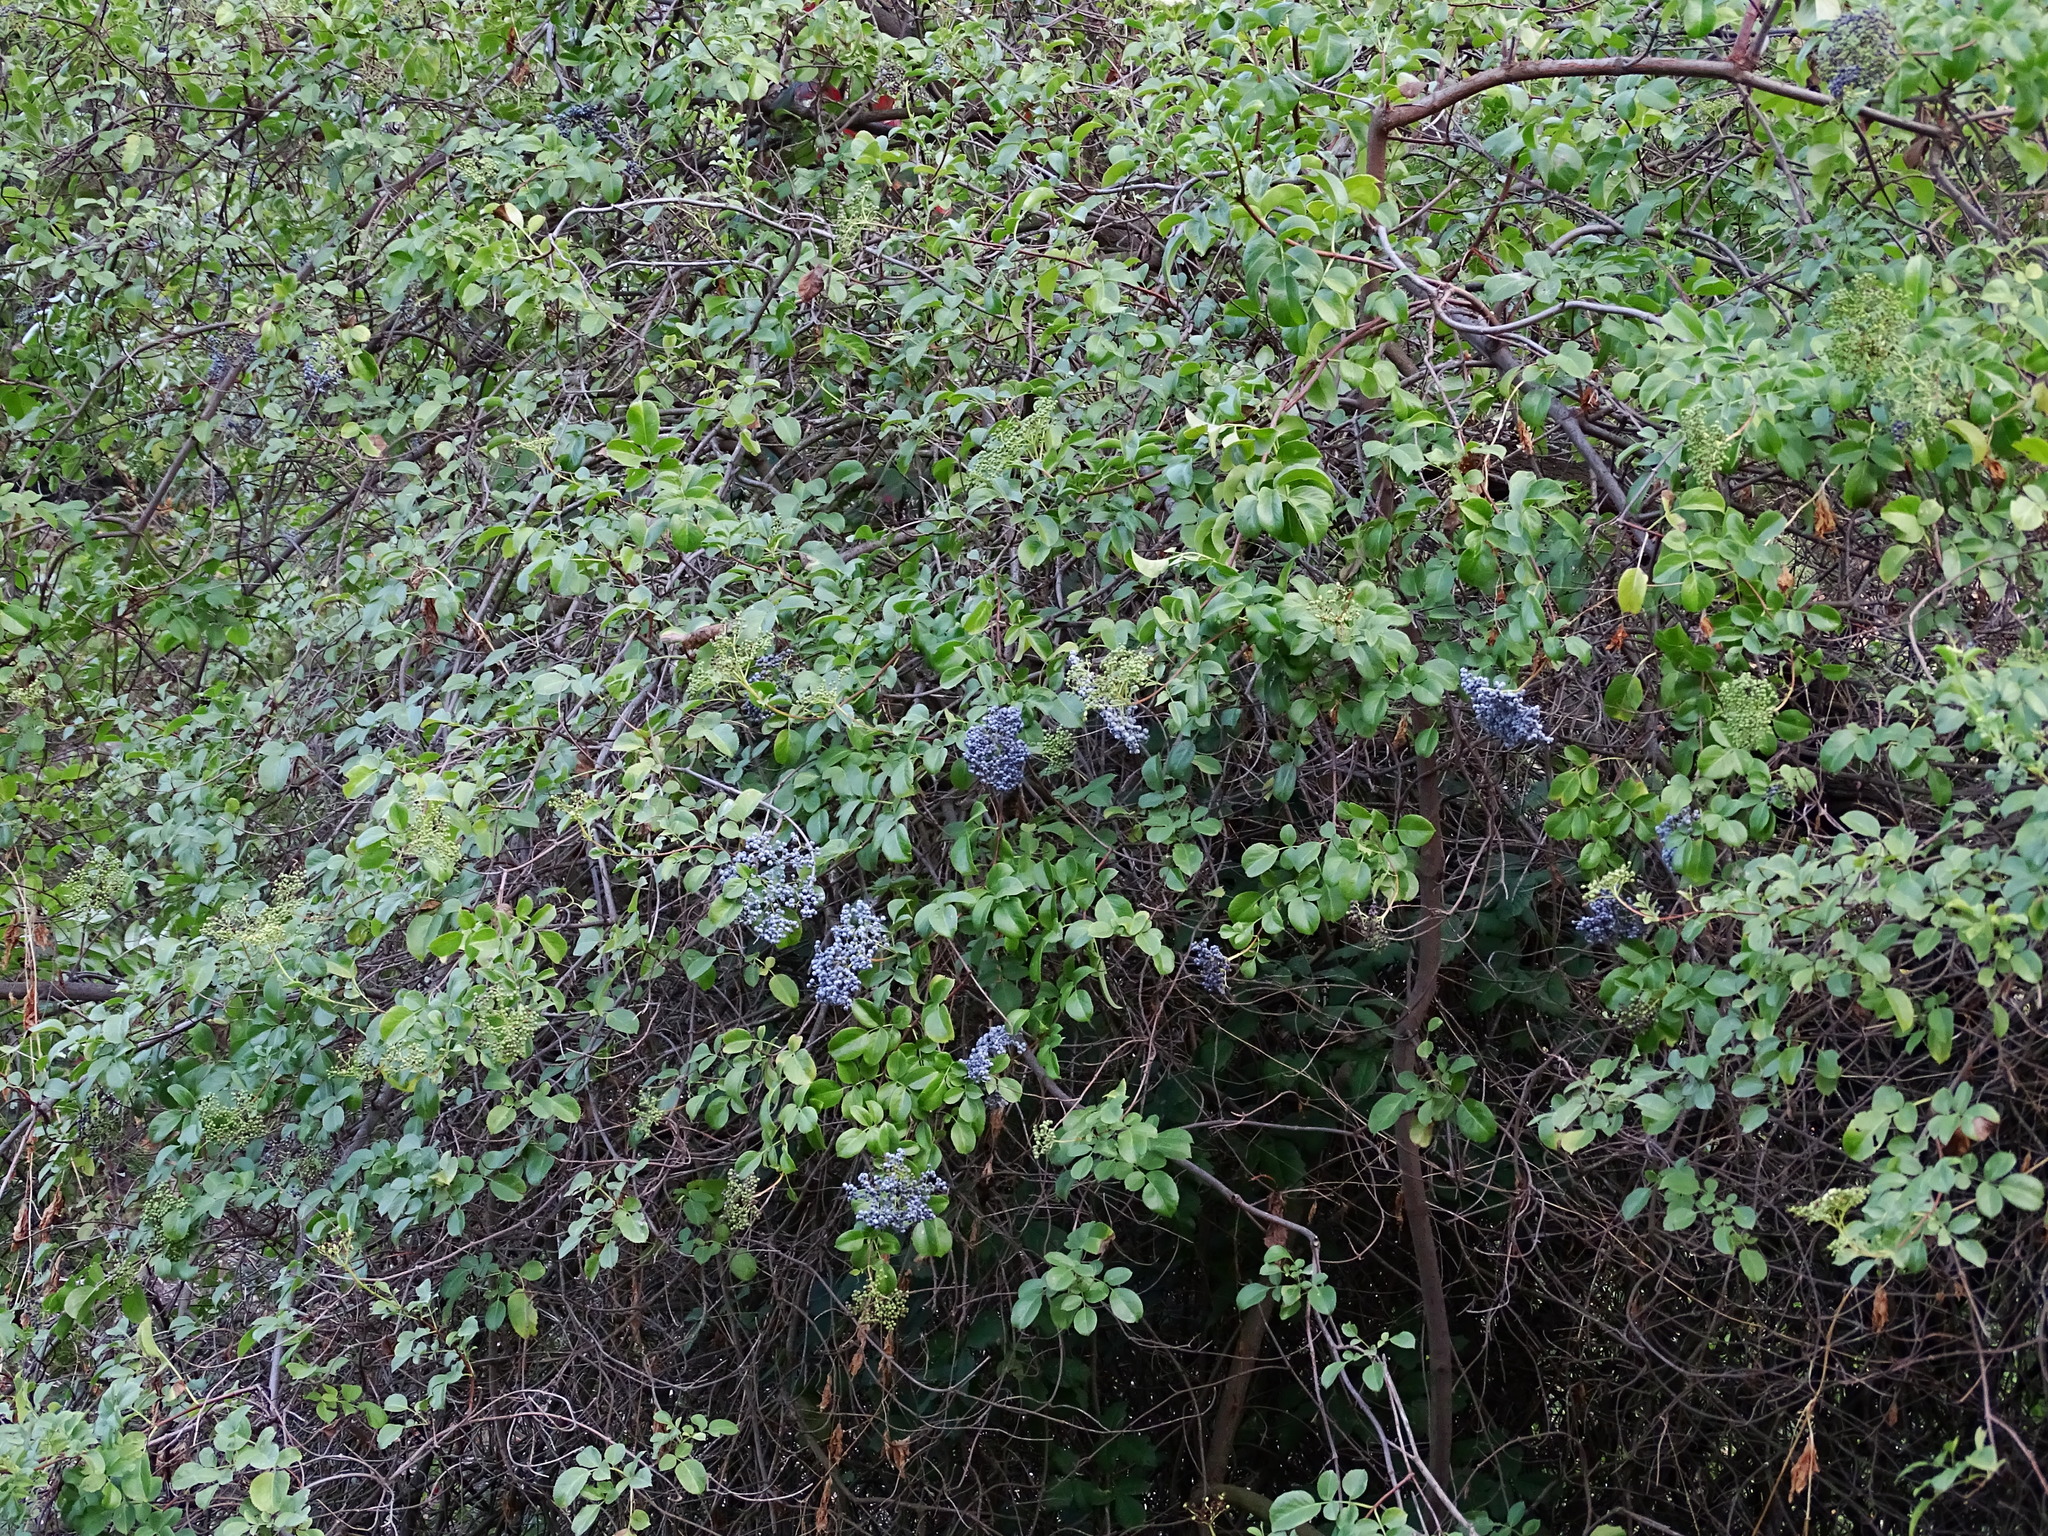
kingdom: Plantae
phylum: Tracheophyta
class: Magnoliopsida
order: Dipsacales
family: Viburnaceae
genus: Sambucus
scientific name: Sambucus cerulea
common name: Blue elder
